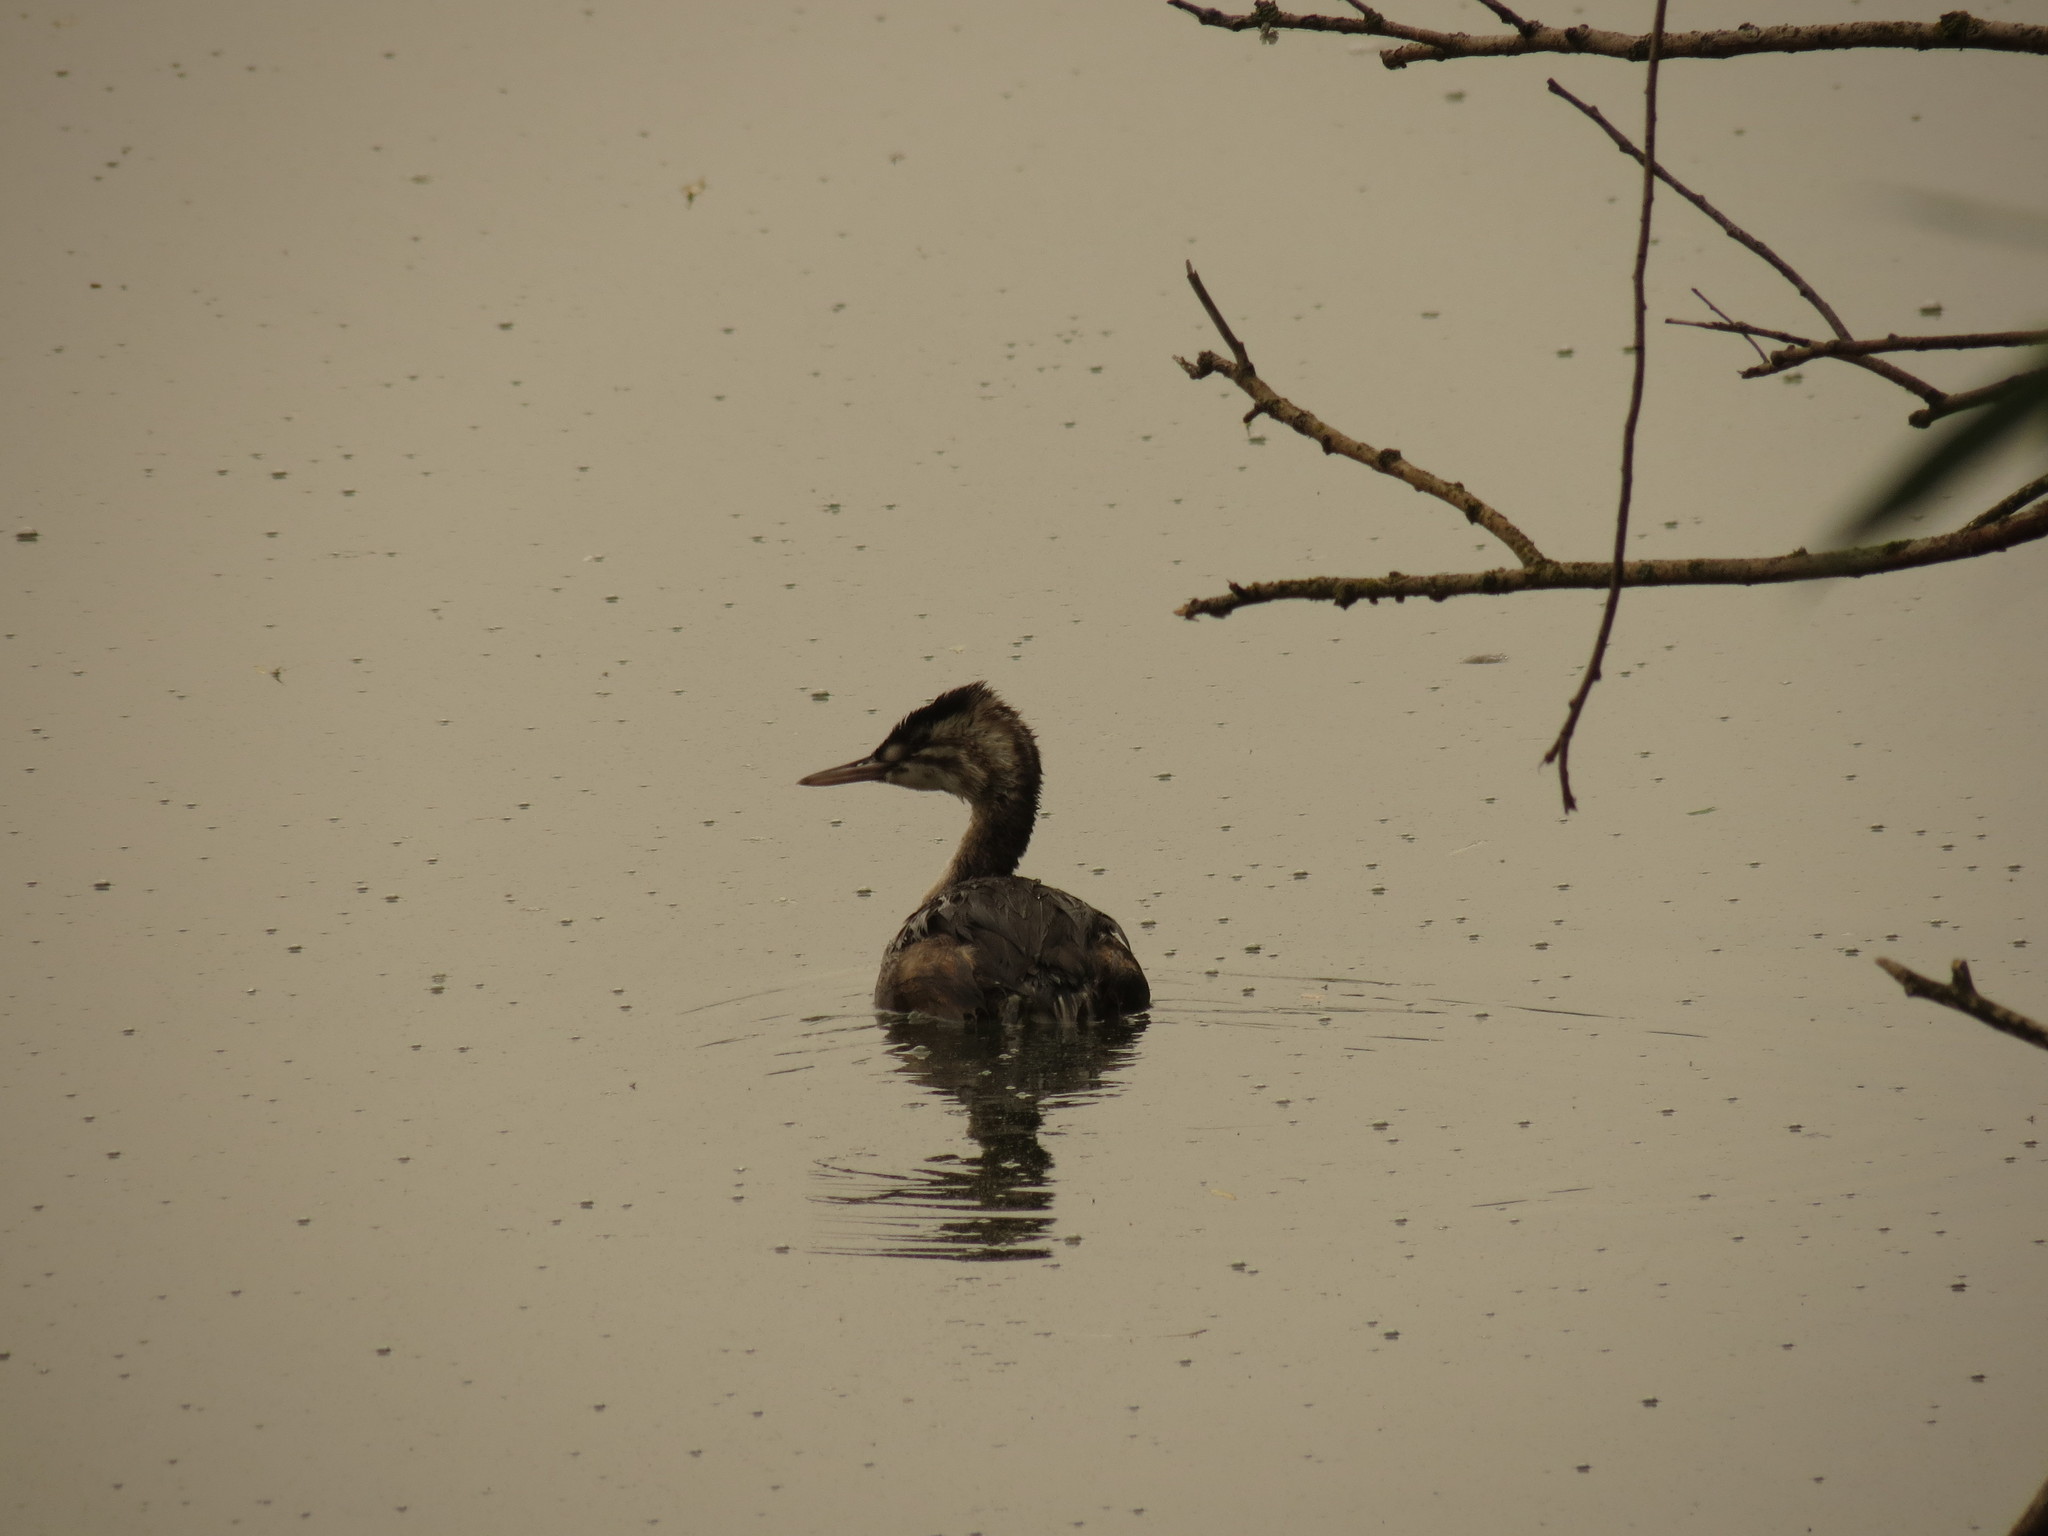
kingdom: Animalia
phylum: Chordata
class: Aves
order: Podicipediformes
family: Podicipedidae
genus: Podiceps
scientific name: Podiceps cristatus
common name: Great crested grebe
